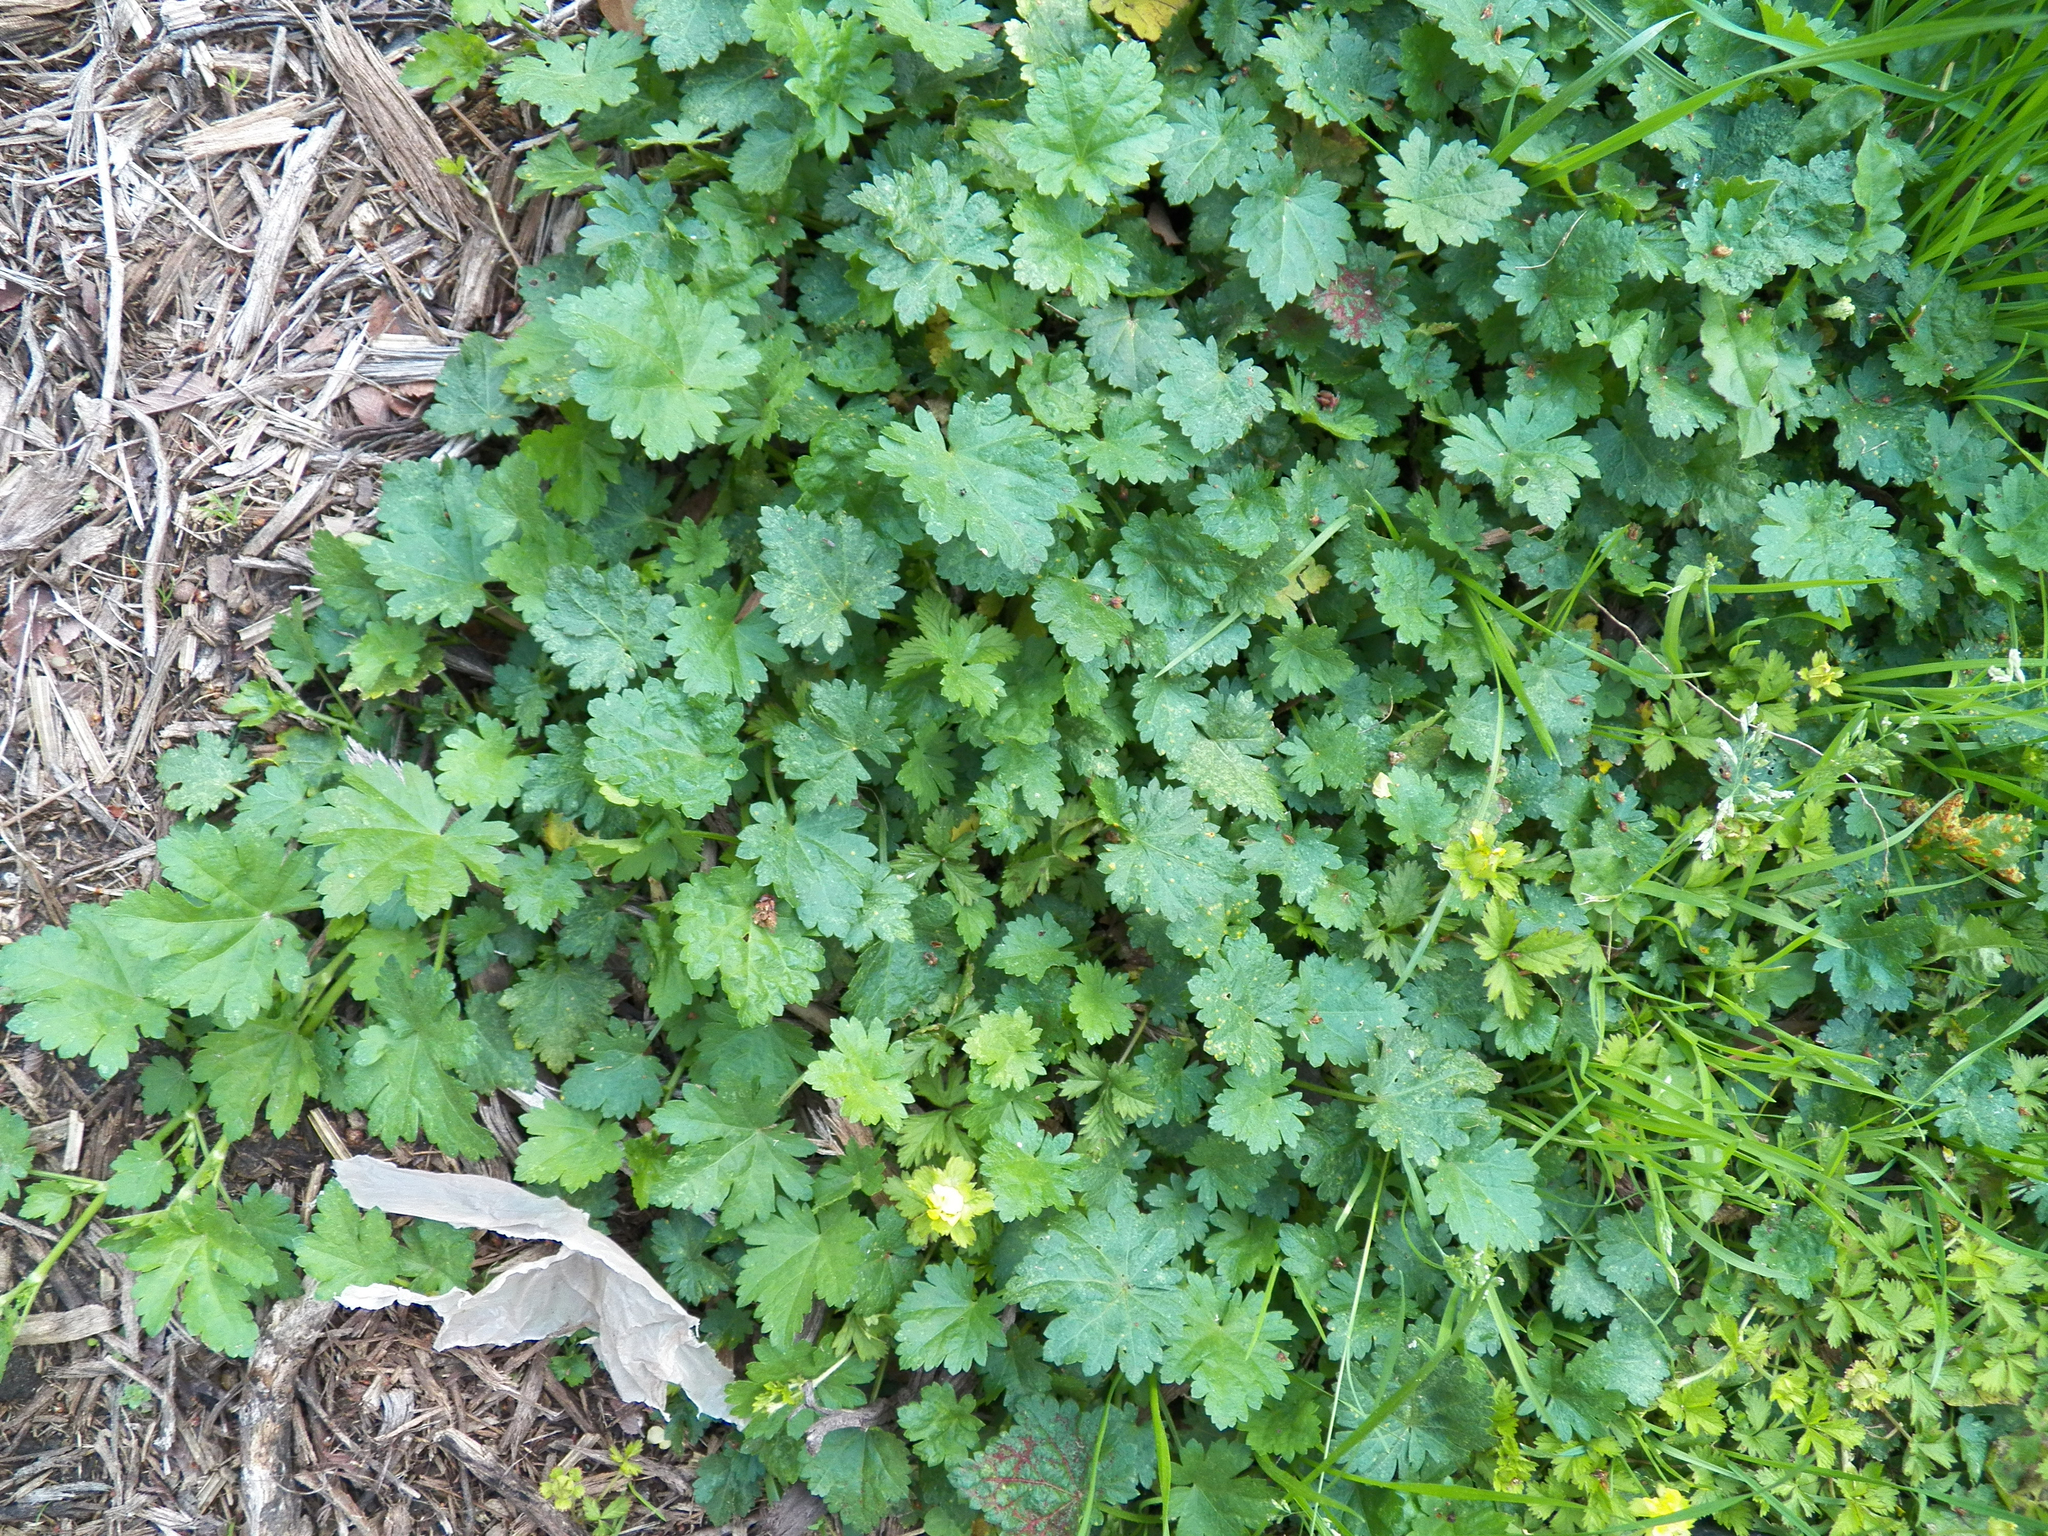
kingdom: Plantae
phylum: Tracheophyta
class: Magnoliopsida
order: Malvales
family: Malvaceae
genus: Modiola
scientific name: Modiola caroliniana
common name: Carolina bristlemallow
